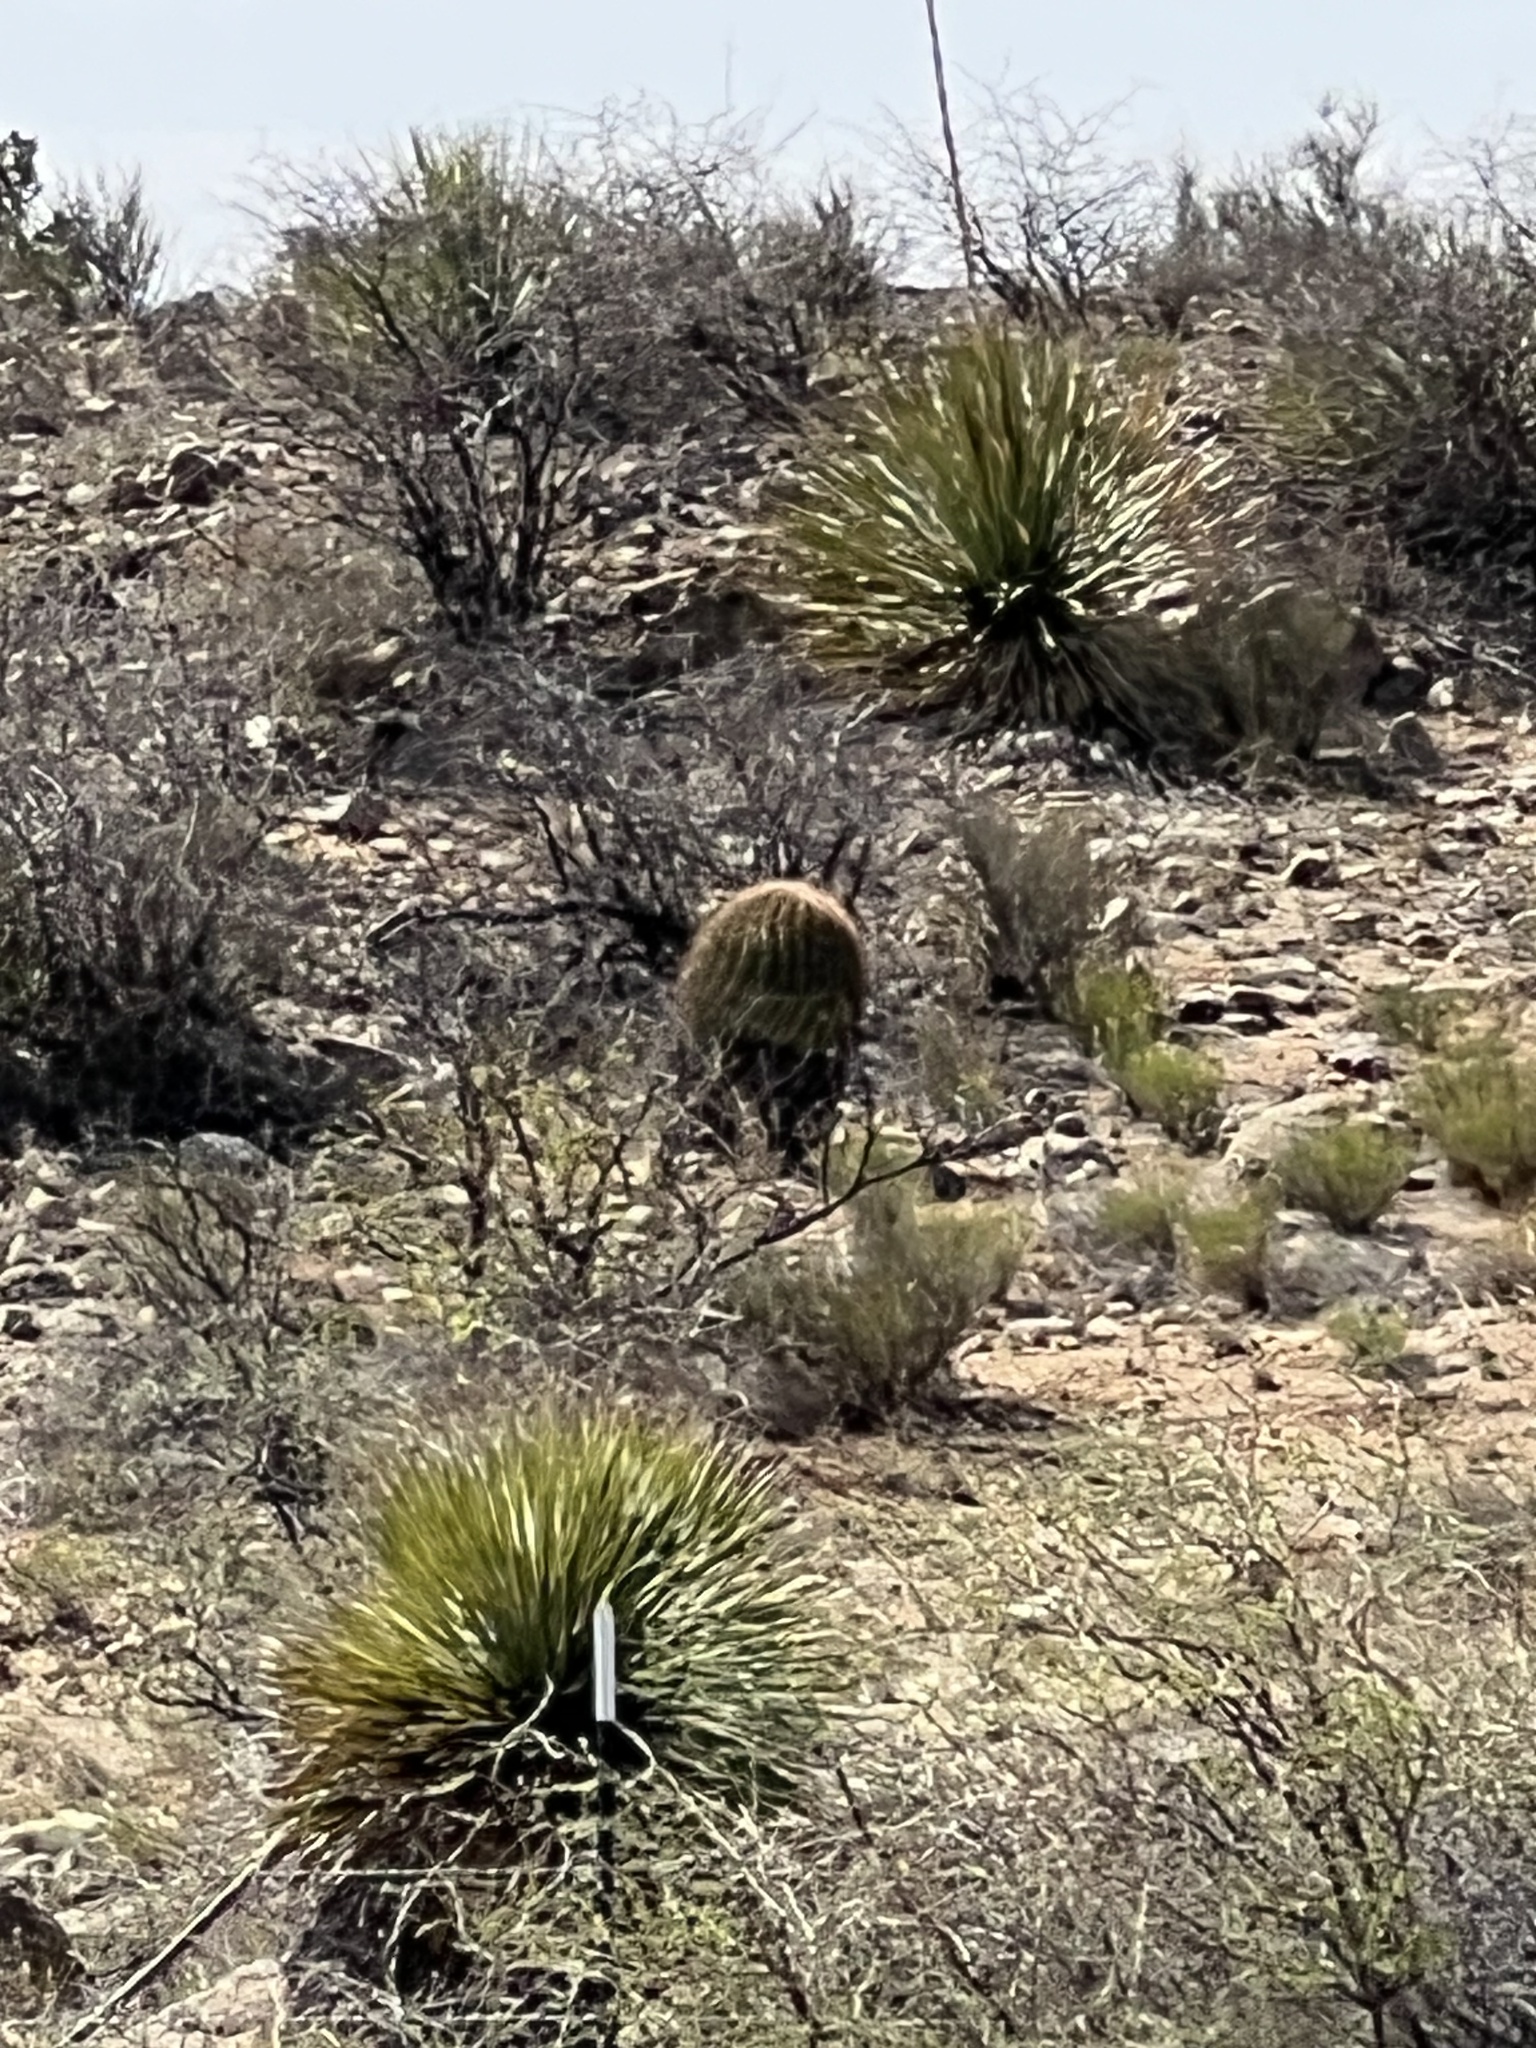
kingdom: Plantae
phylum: Tracheophyta
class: Magnoliopsida
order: Caryophyllales
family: Cactaceae
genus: Ferocactus
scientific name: Ferocactus wislizeni
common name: Candy barrel cactus
